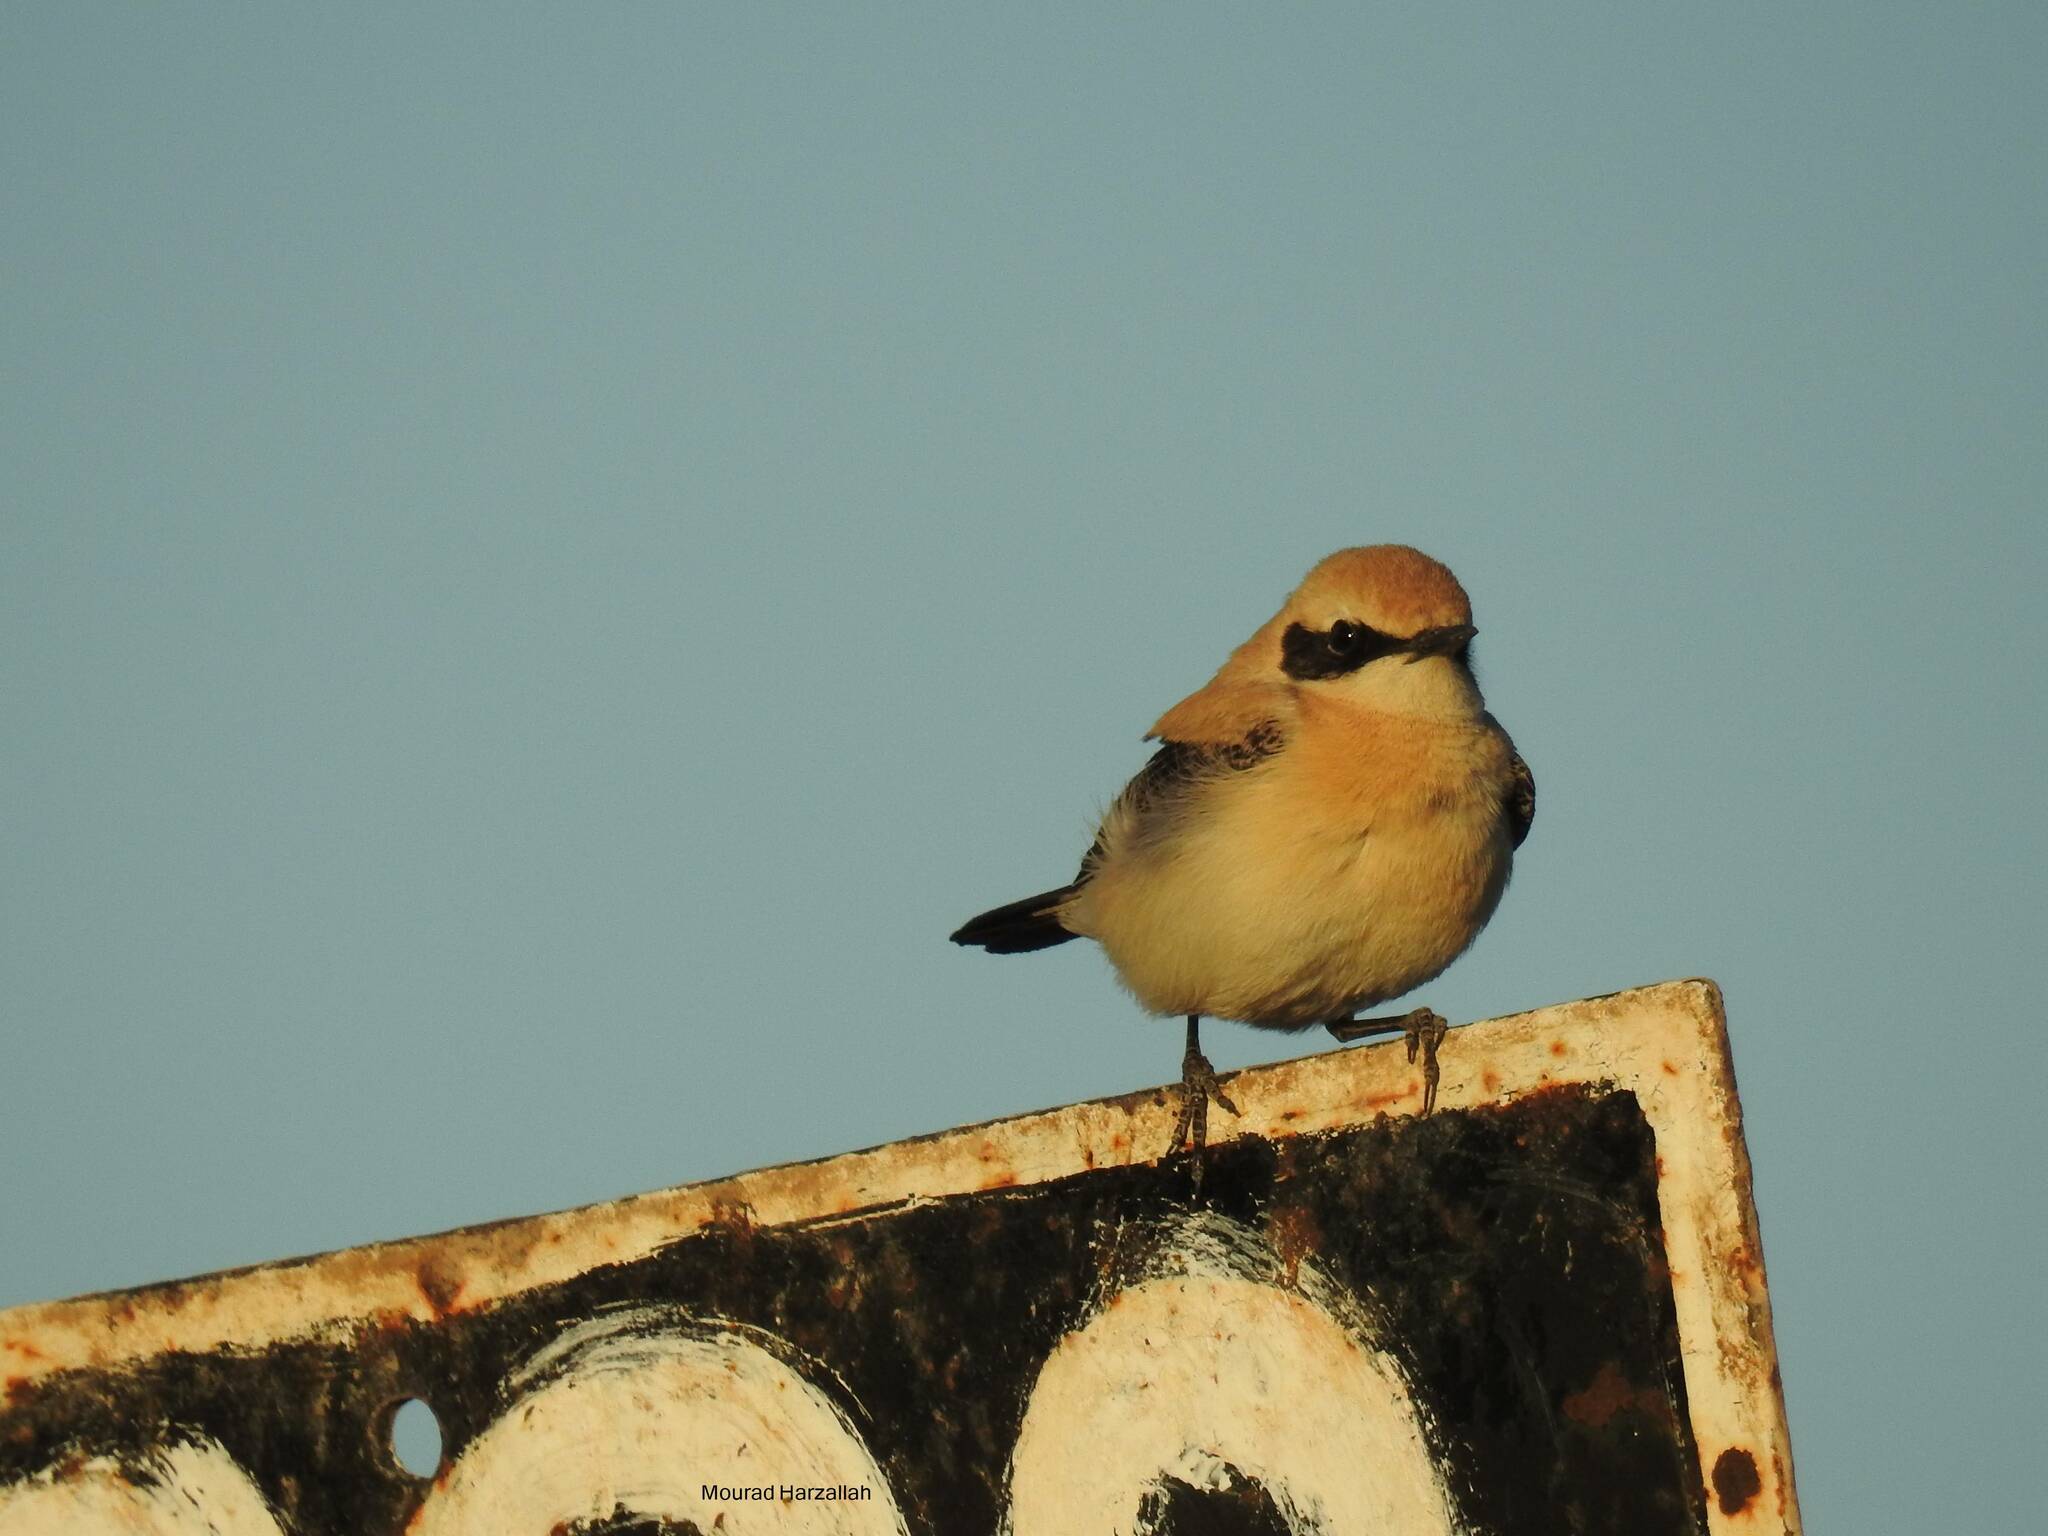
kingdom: Animalia
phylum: Chordata
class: Aves
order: Passeriformes
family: Muscicapidae
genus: Oenanthe
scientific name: Oenanthe hispanica
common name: Black-eared wheatear
